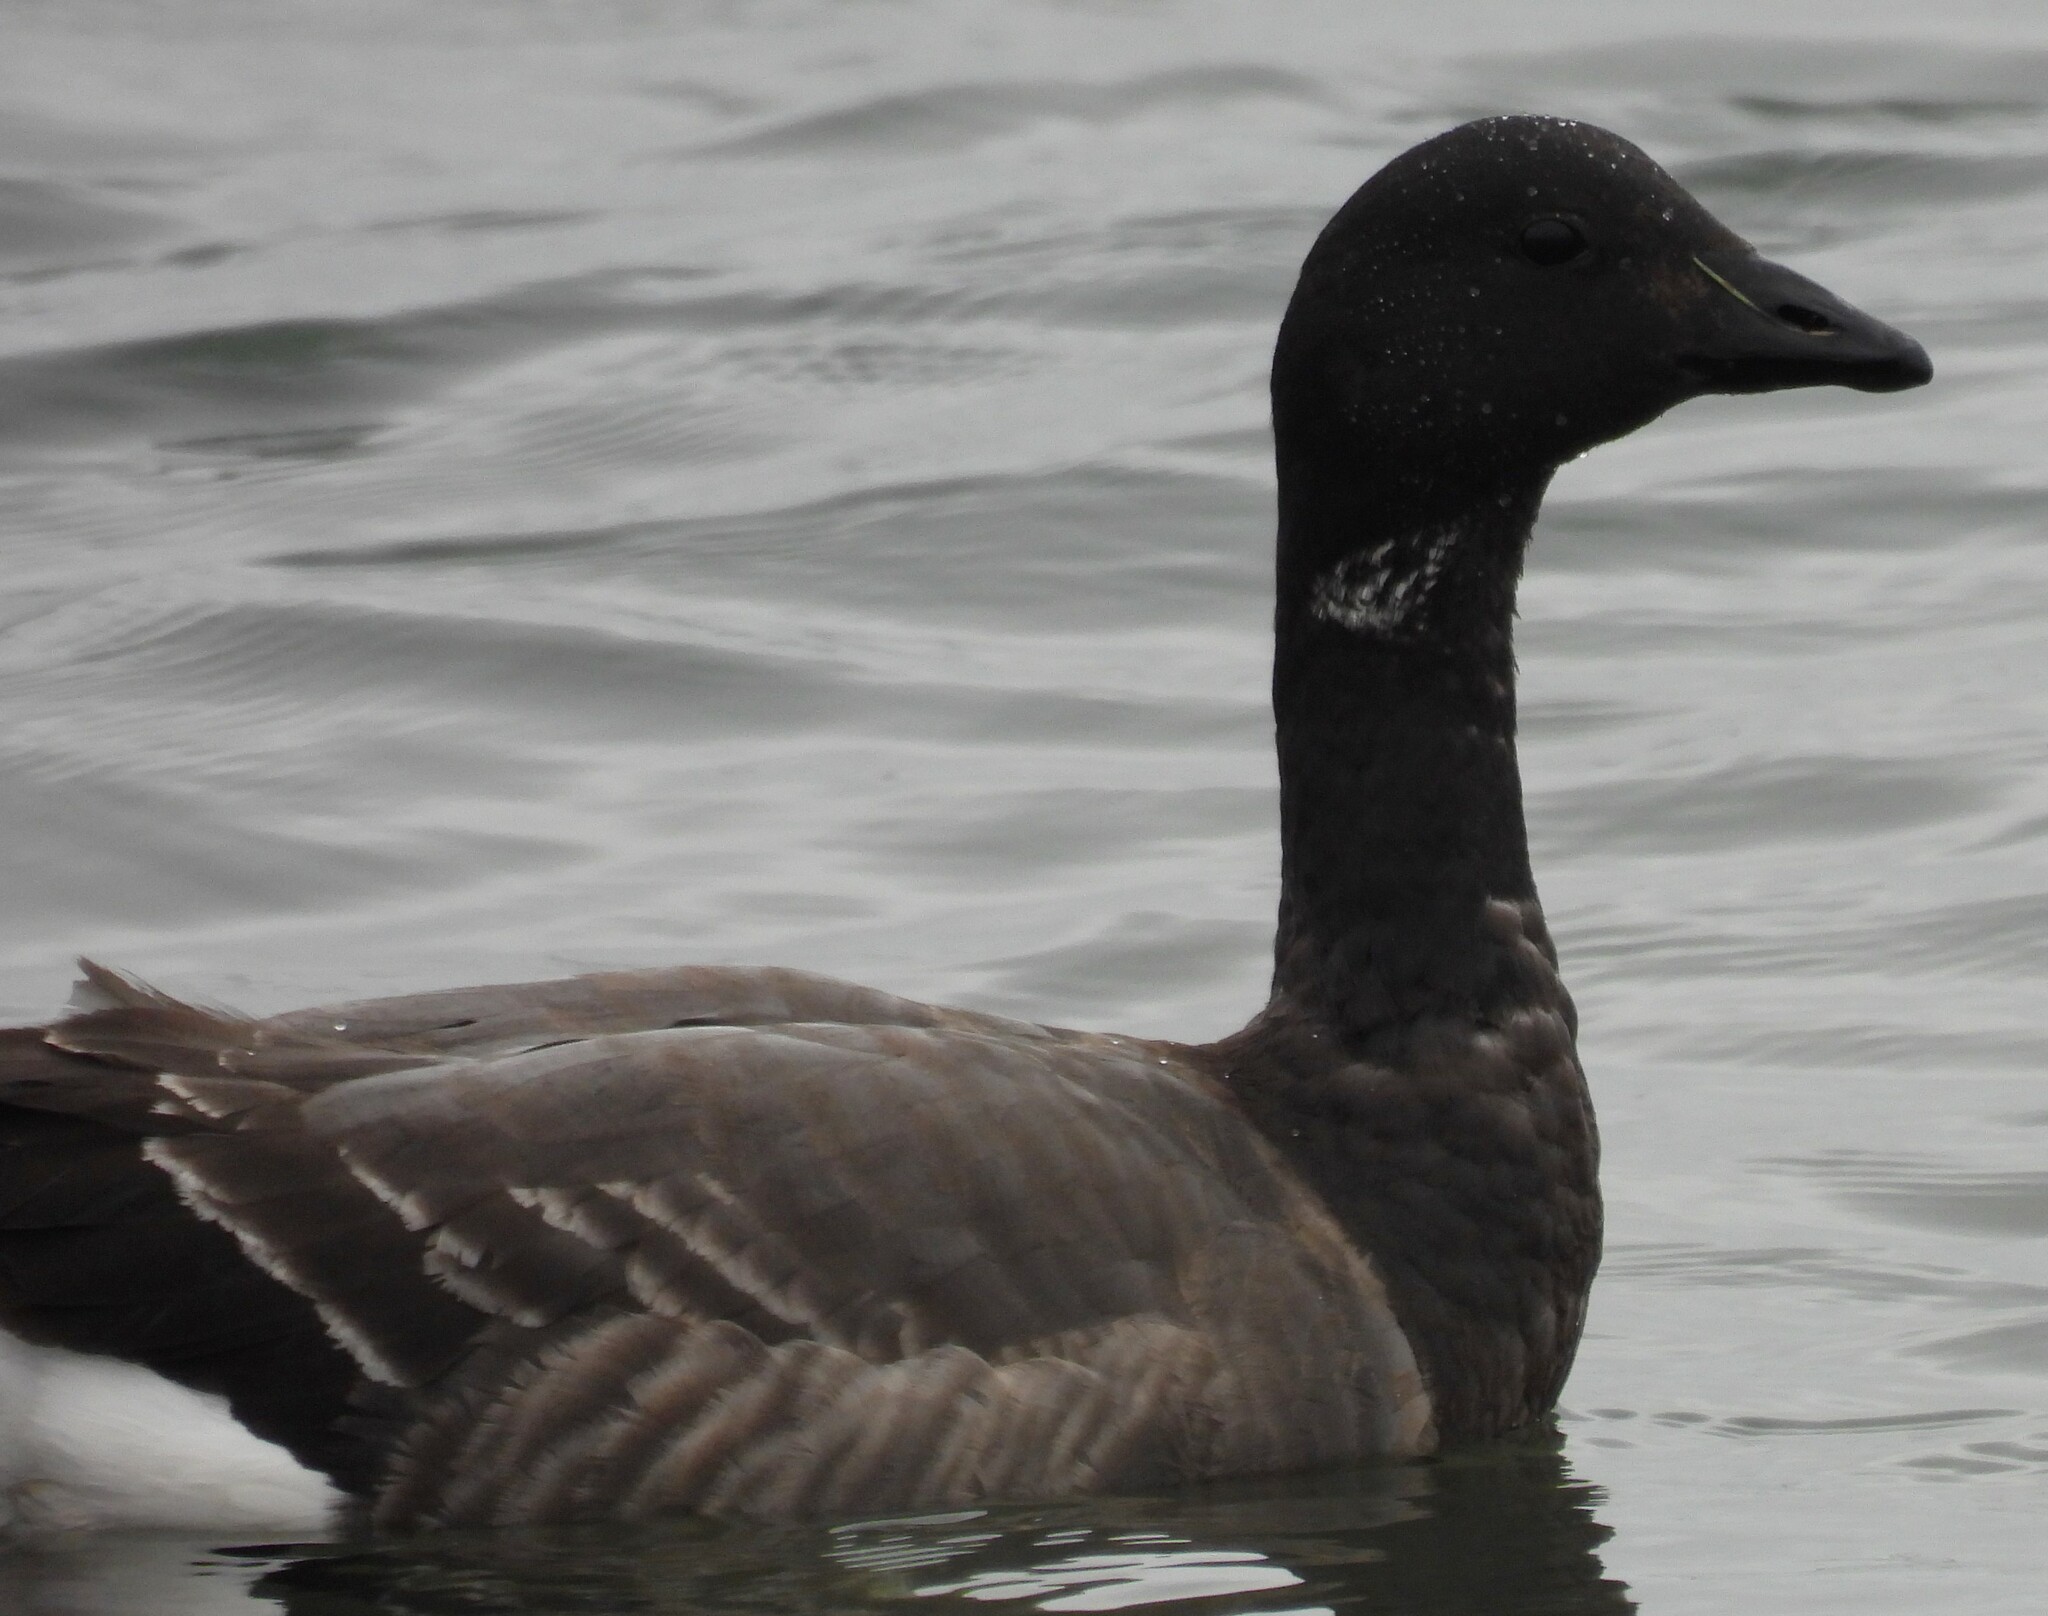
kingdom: Animalia
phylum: Chordata
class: Aves
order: Anseriformes
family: Anatidae
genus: Branta
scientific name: Branta bernicla
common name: Brant goose
